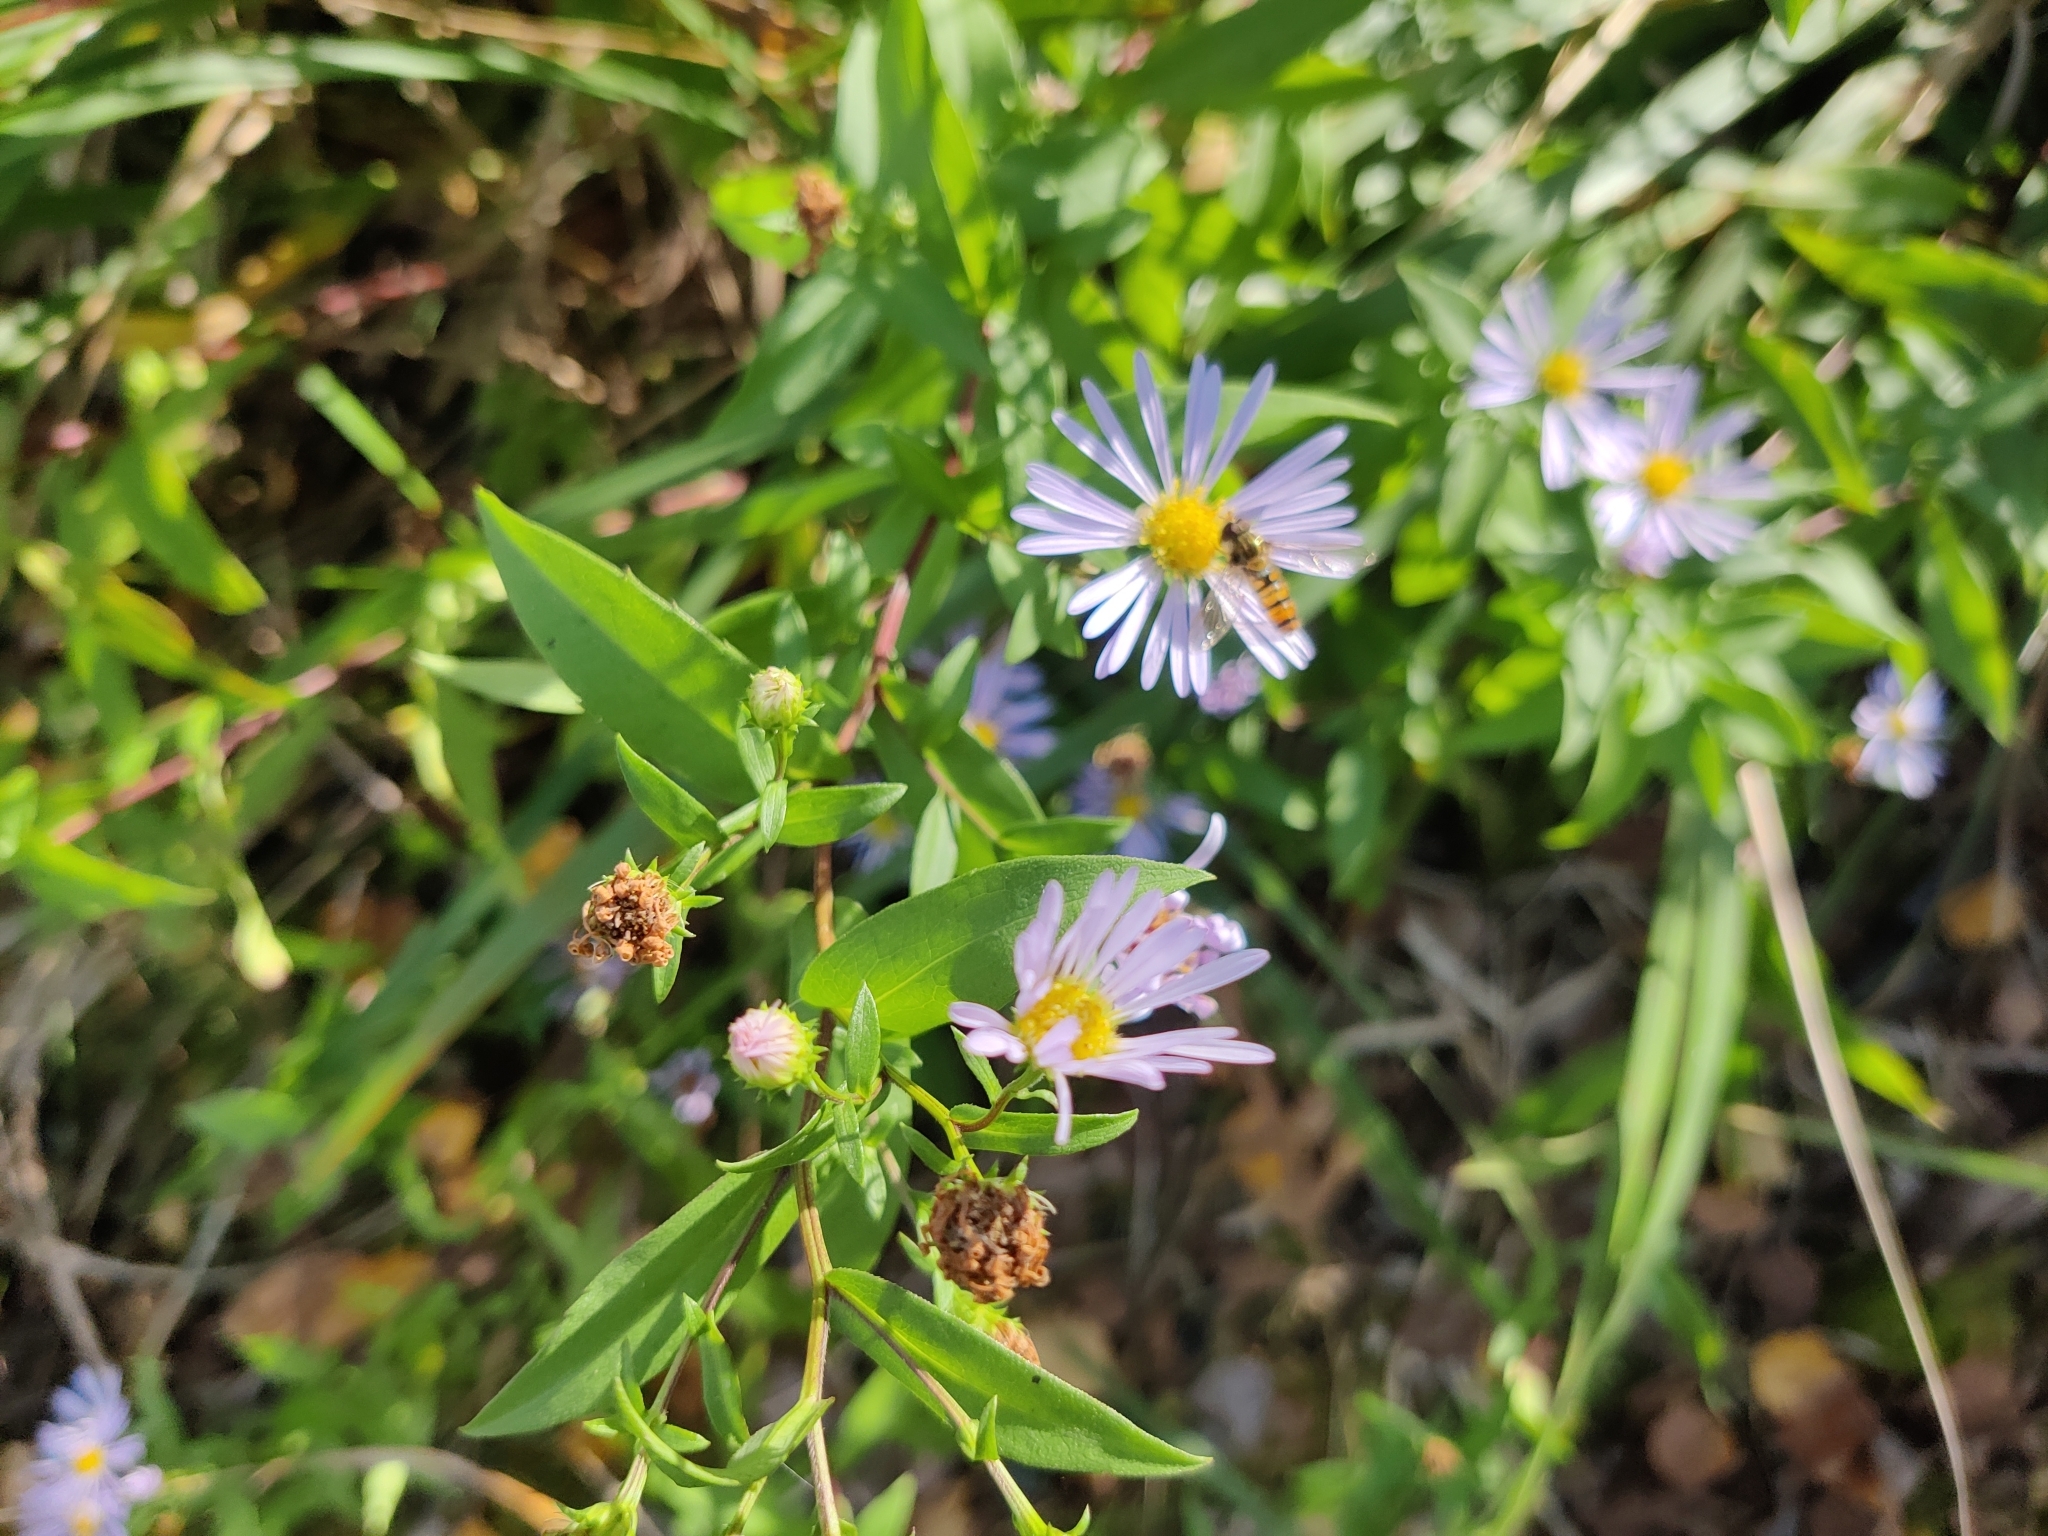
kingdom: Plantae
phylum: Tracheophyta
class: Magnoliopsida
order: Asterales
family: Asteraceae
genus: Symphyotrichum
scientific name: Symphyotrichum novi-belgii
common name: Michaelmas daisy
